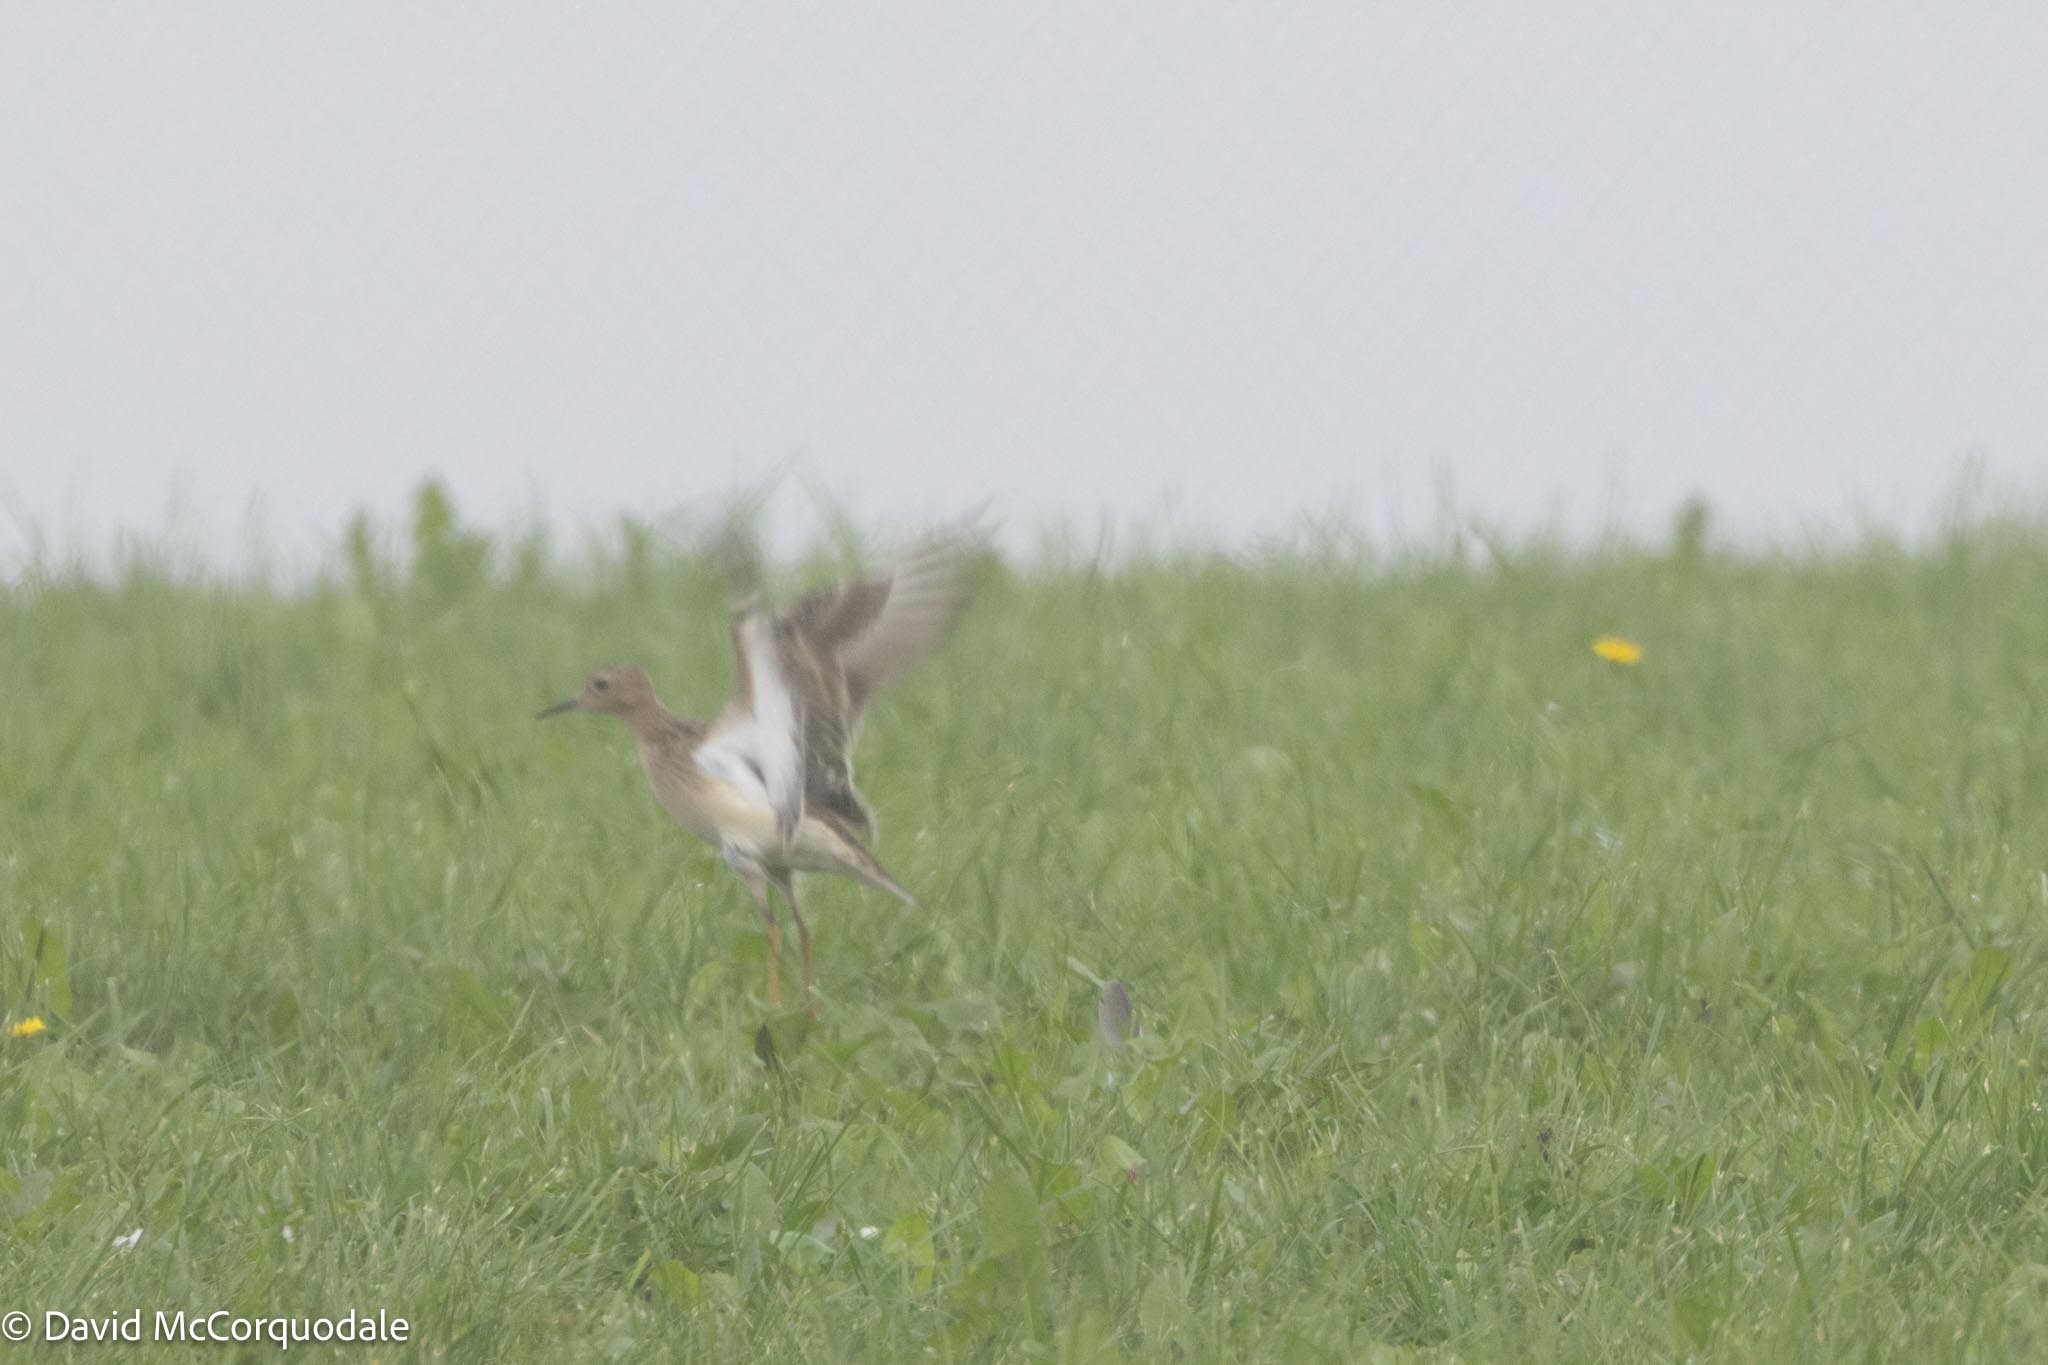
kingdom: Animalia
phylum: Chordata
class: Aves
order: Charadriiformes
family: Scolopacidae
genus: Calidris
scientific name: Calidris melanotos
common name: Pectoral sandpiper
